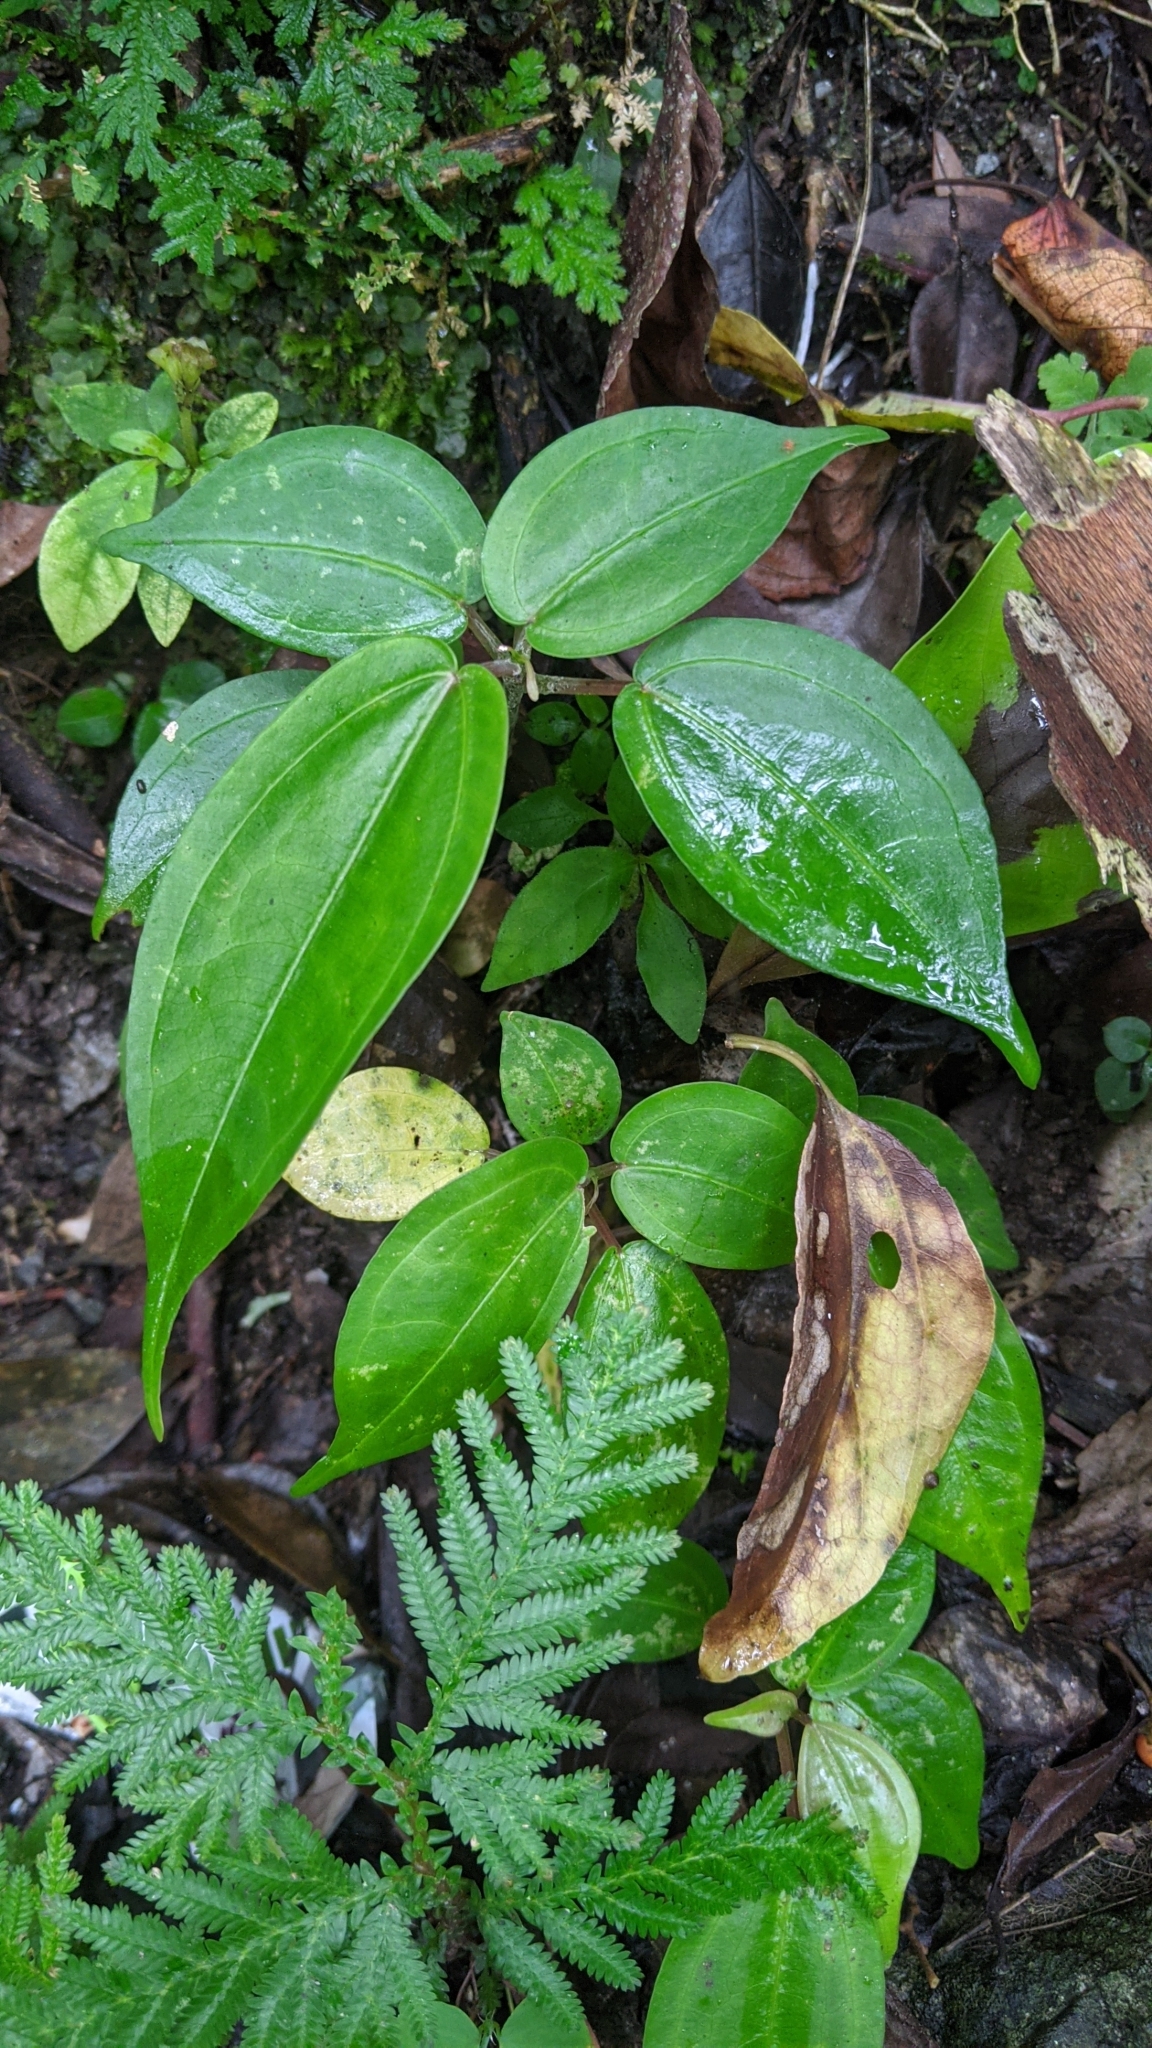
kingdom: Plantae
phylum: Tracheophyta
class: Magnoliopsida
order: Rosales
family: Urticaceae
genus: Pilea
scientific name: Pilea plataniflora
